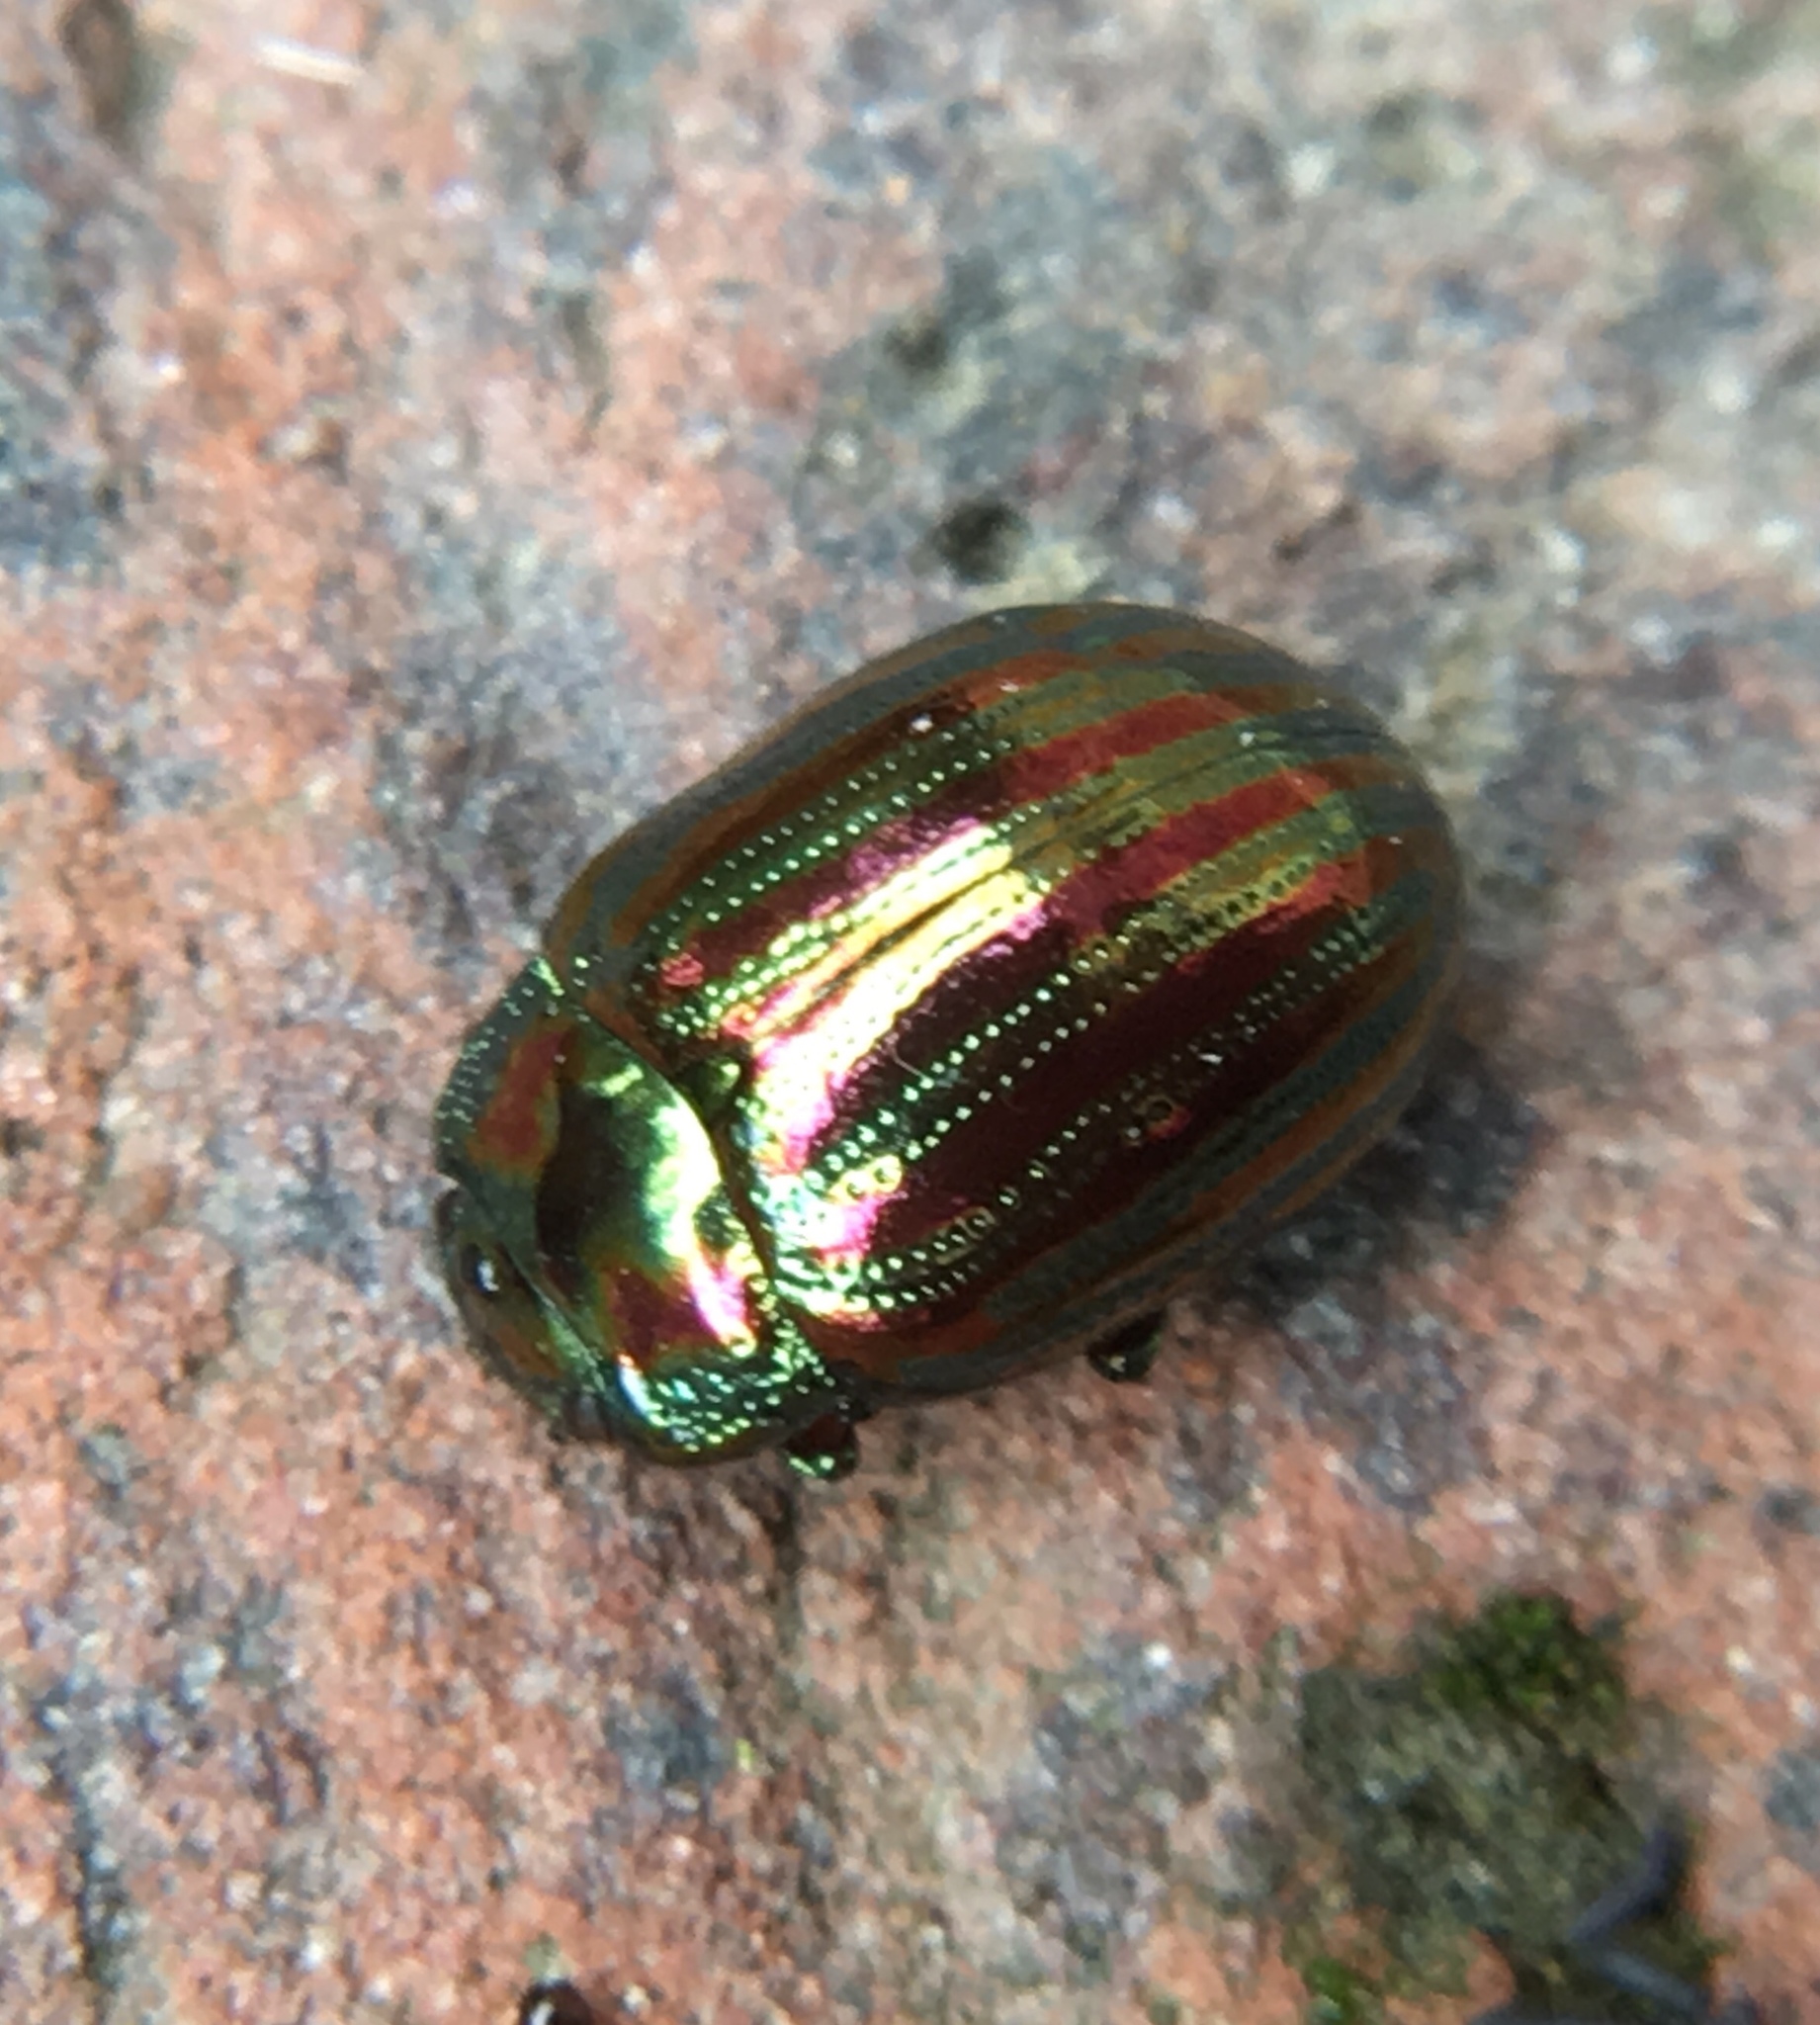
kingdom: Animalia
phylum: Arthropoda
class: Insecta
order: Coleoptera
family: Chrysomelidae
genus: Chrysolina
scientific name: Chrysolina americana
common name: Rosemary beetle
